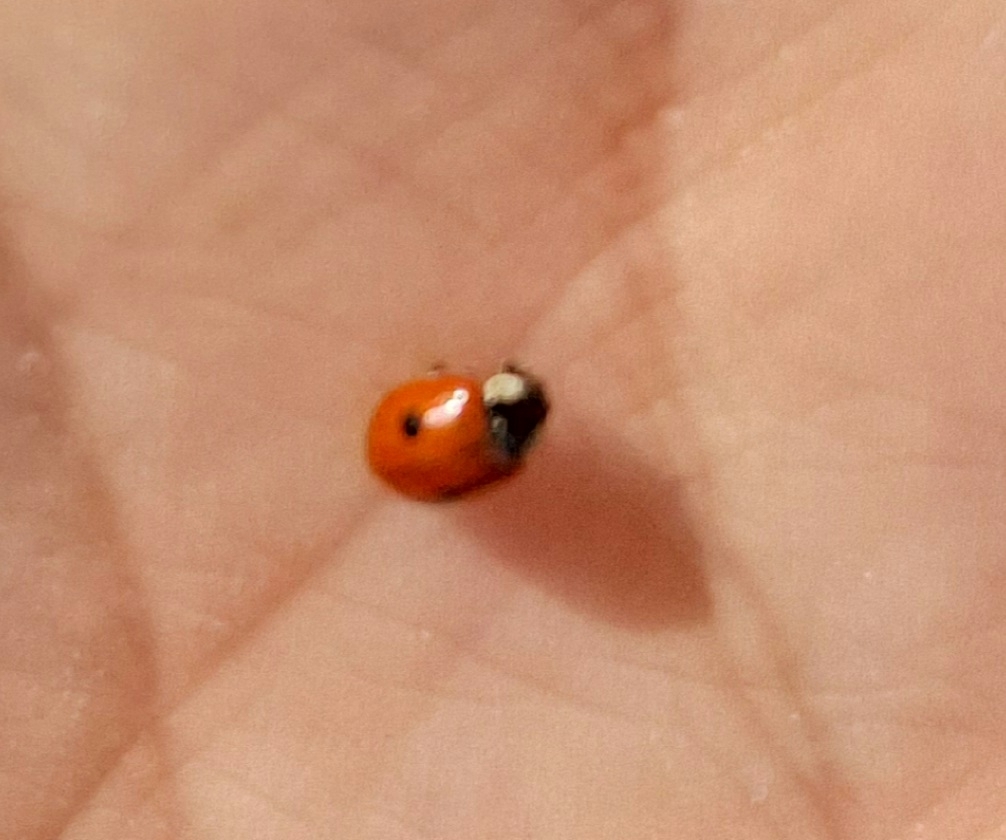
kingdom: Animalia
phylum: Arthropoda
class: Insecta
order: Coleoptera
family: Coccinellidae
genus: Adalia
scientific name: Adalia bipunctata
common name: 2-spot ladybird
